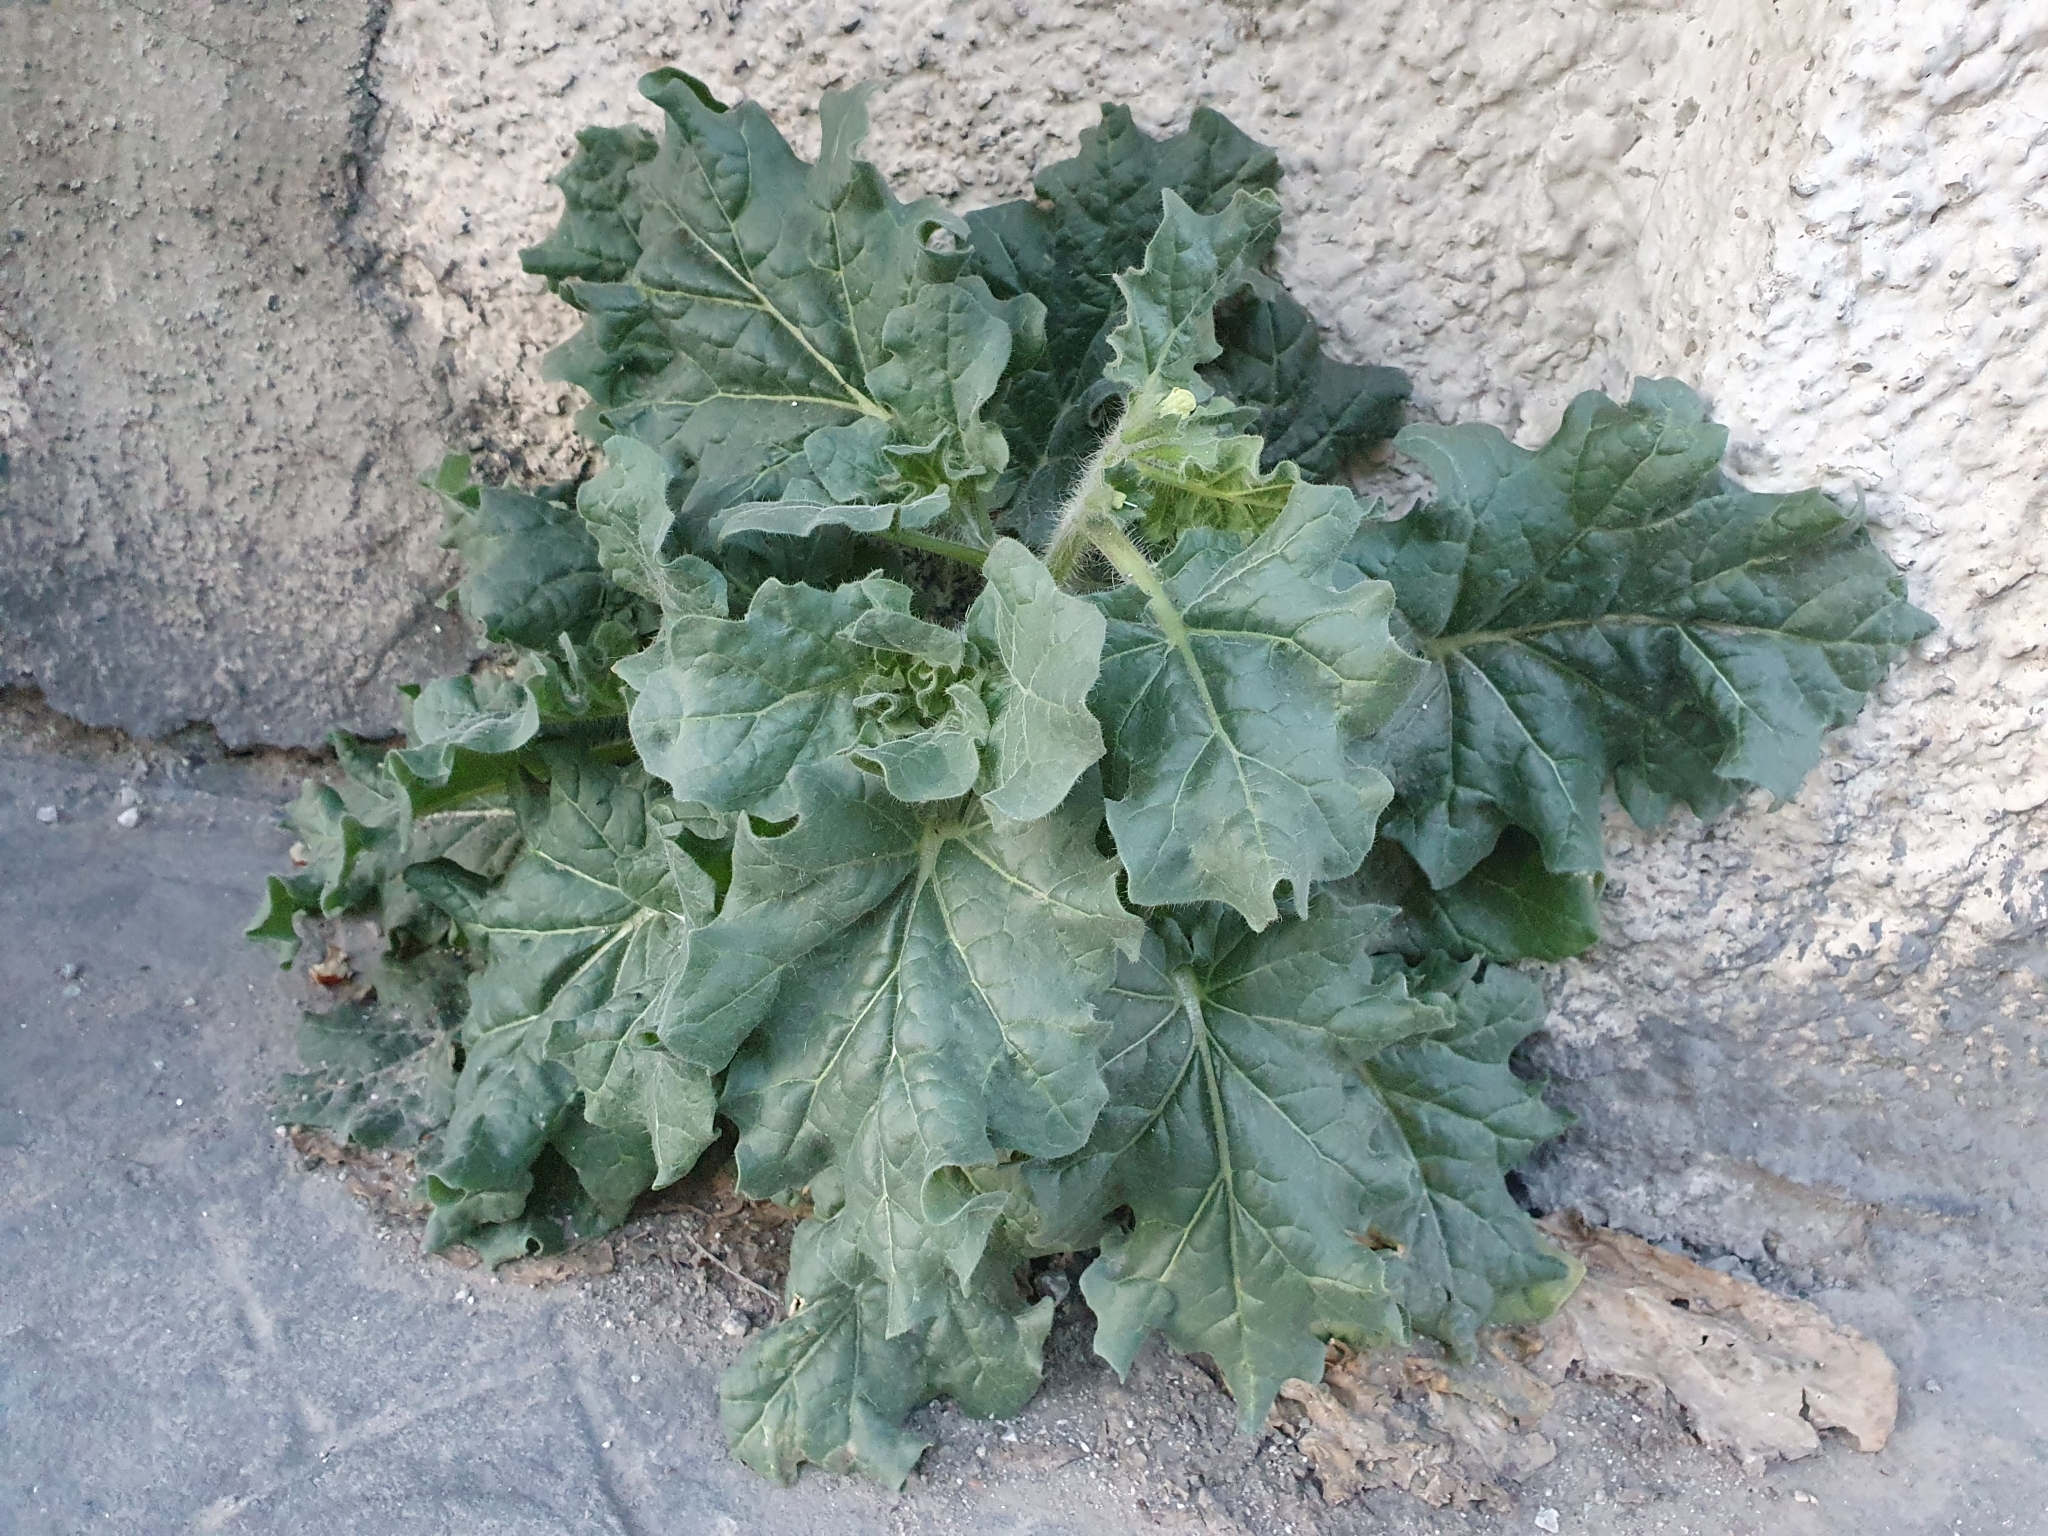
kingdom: Plantae
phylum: Tracheophyta
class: Magnoliopsida
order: Solanales
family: Solanaceae
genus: Hyoscyamus
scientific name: Hyoscyamus albus
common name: White henbane
